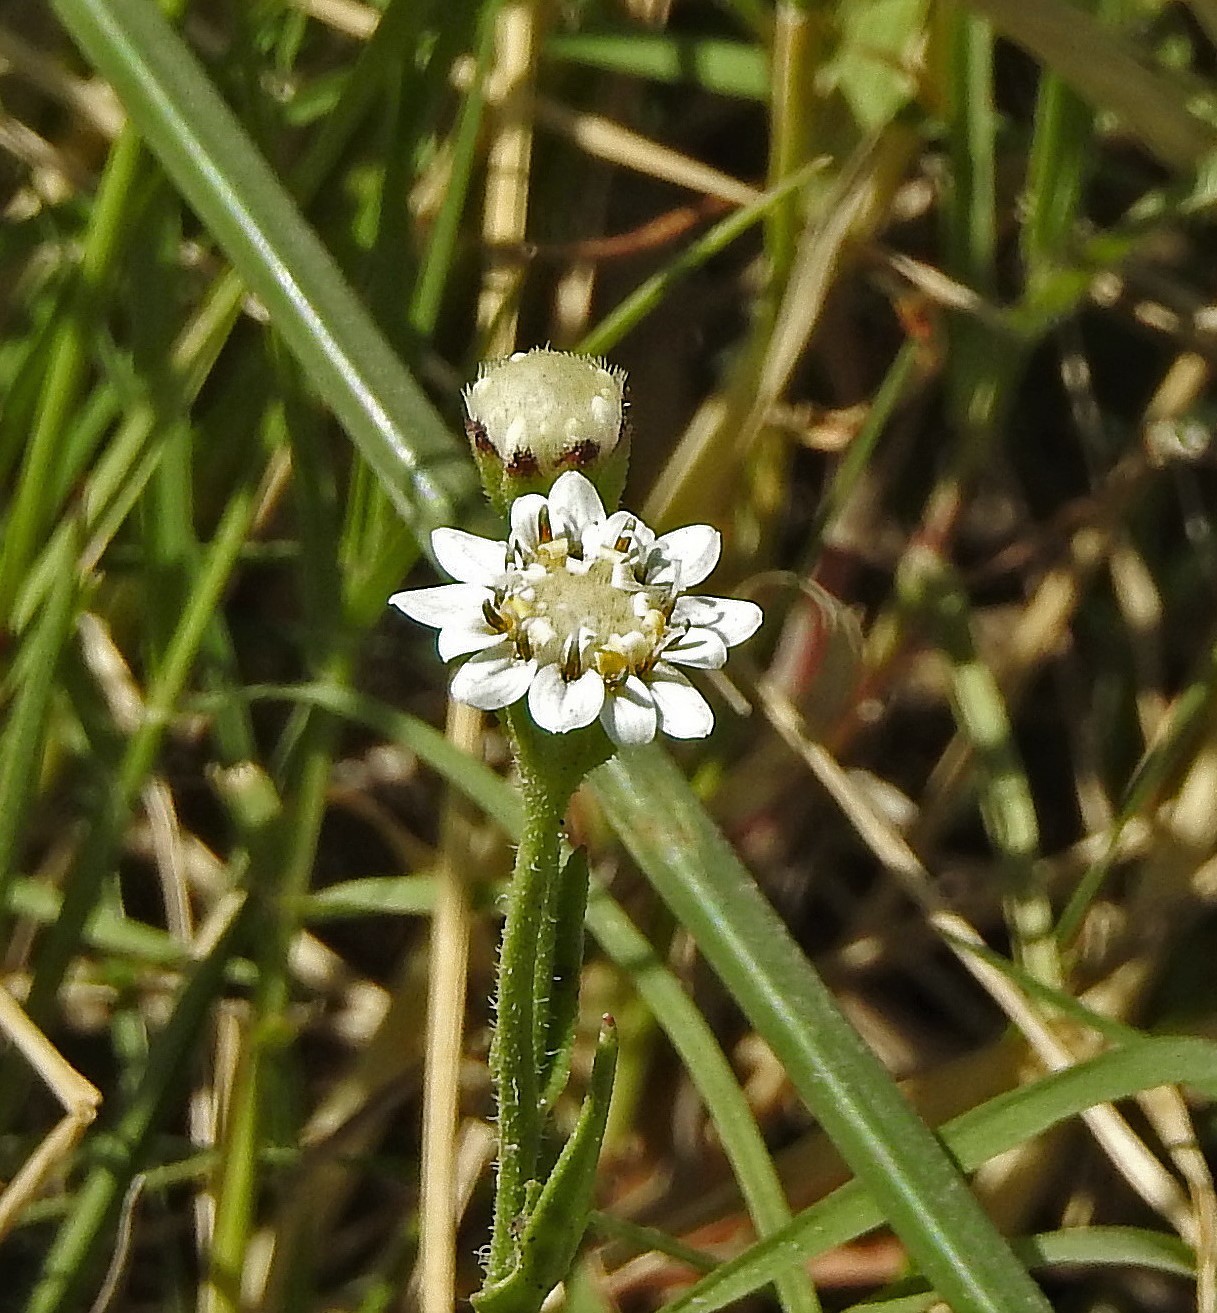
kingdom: Plantae
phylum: Tracheophyta
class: Magnoliopsida
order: Asterales
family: Asteraceae
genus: Holocheilus
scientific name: Holocheilus brasiliensis
